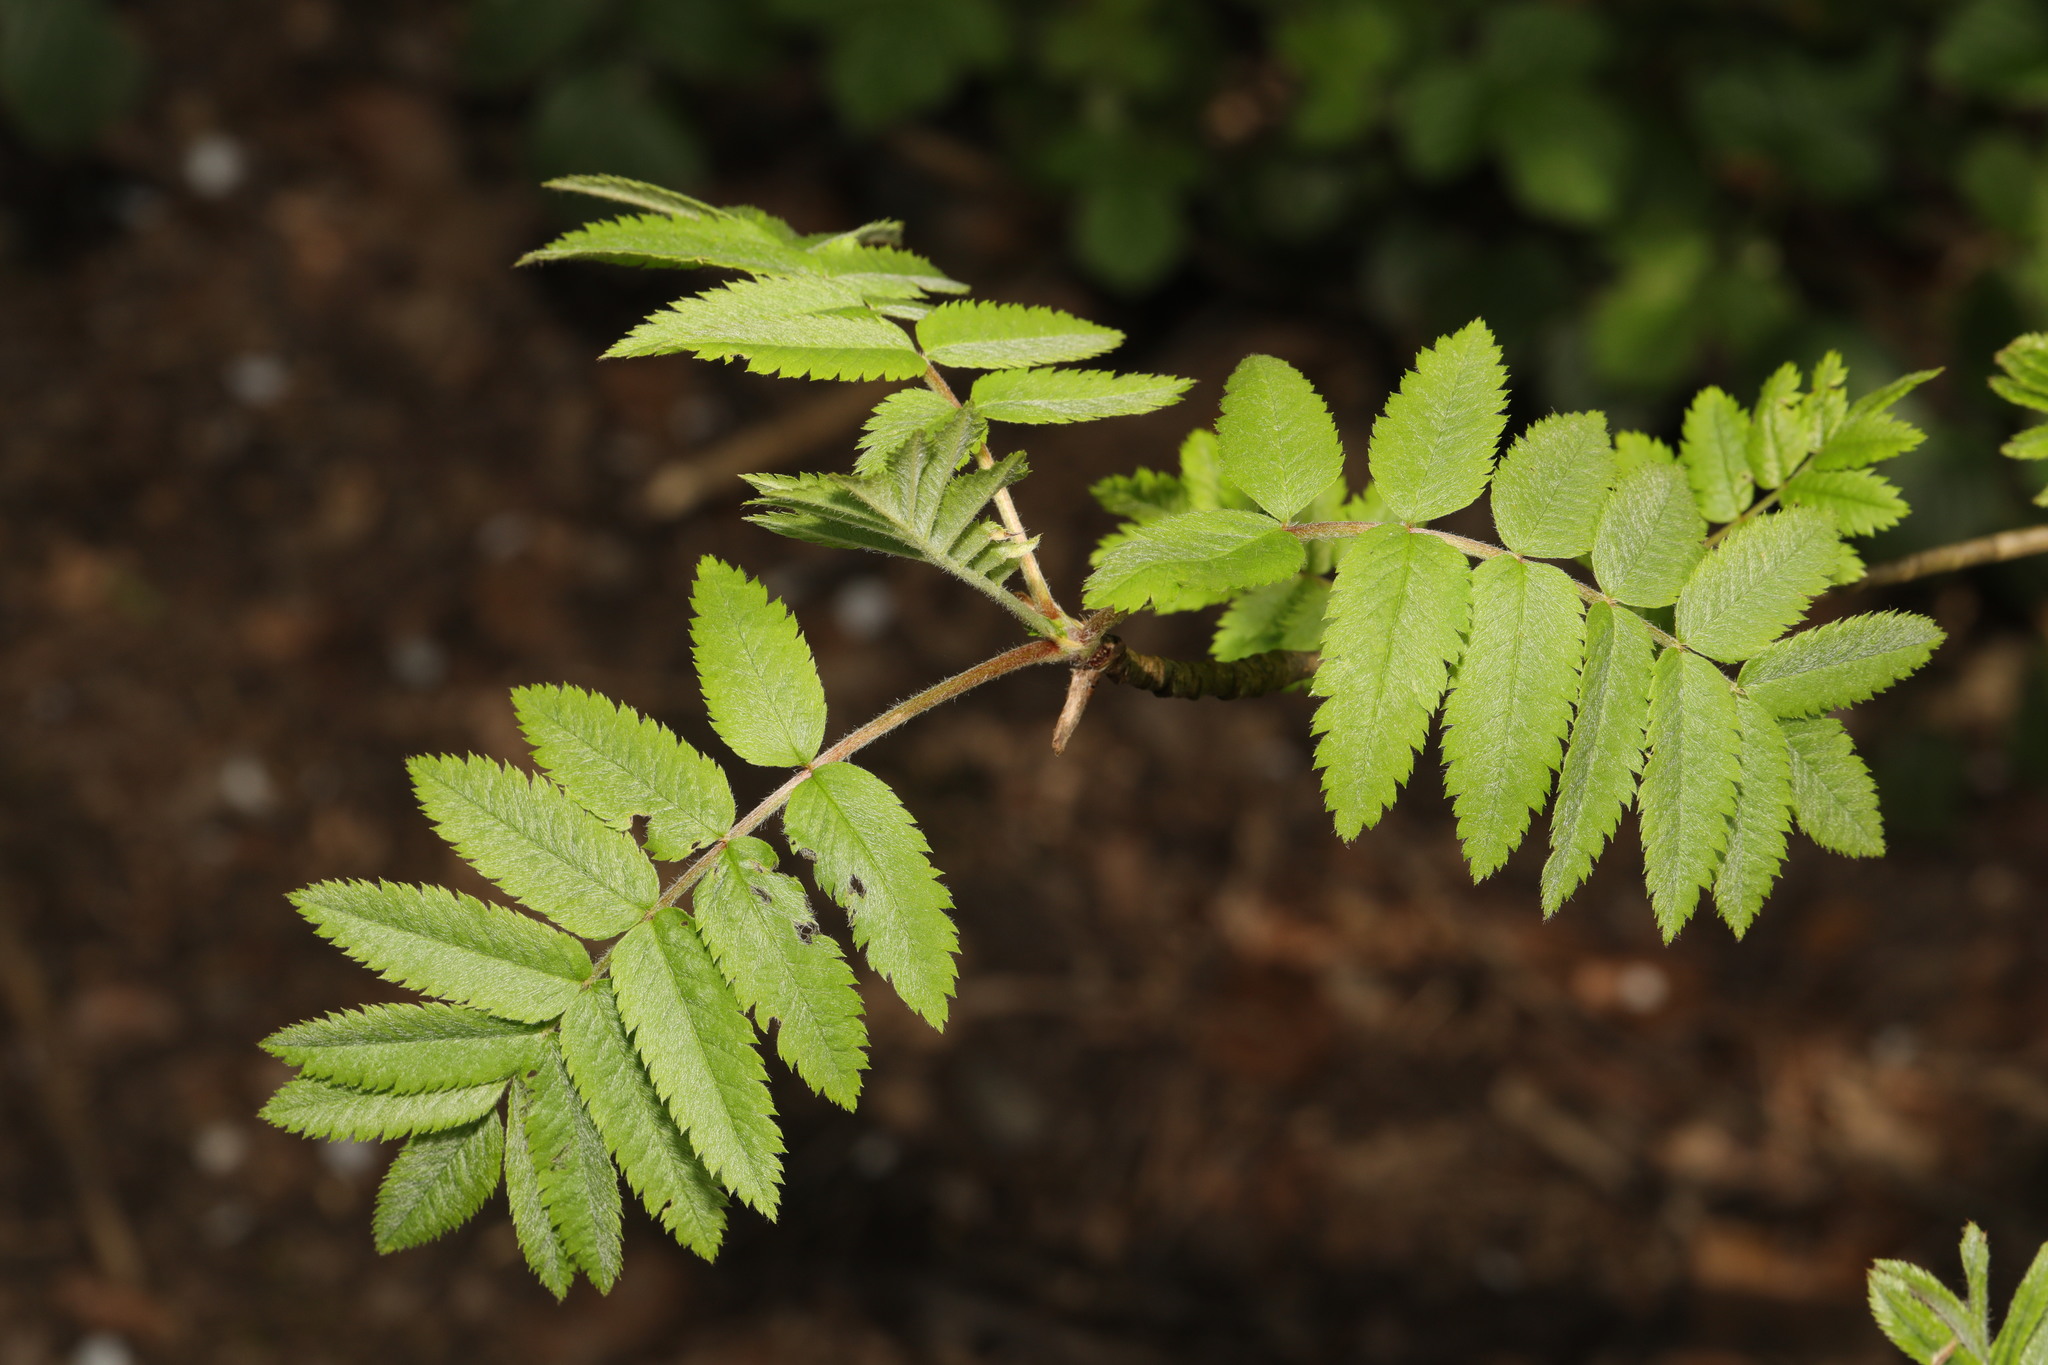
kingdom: Plantae
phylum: Tracheophyta
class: Magnoliopsida
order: Rosales
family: Rosaceae
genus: Sorbus
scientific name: Sorbus aucuparia
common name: Rowan
